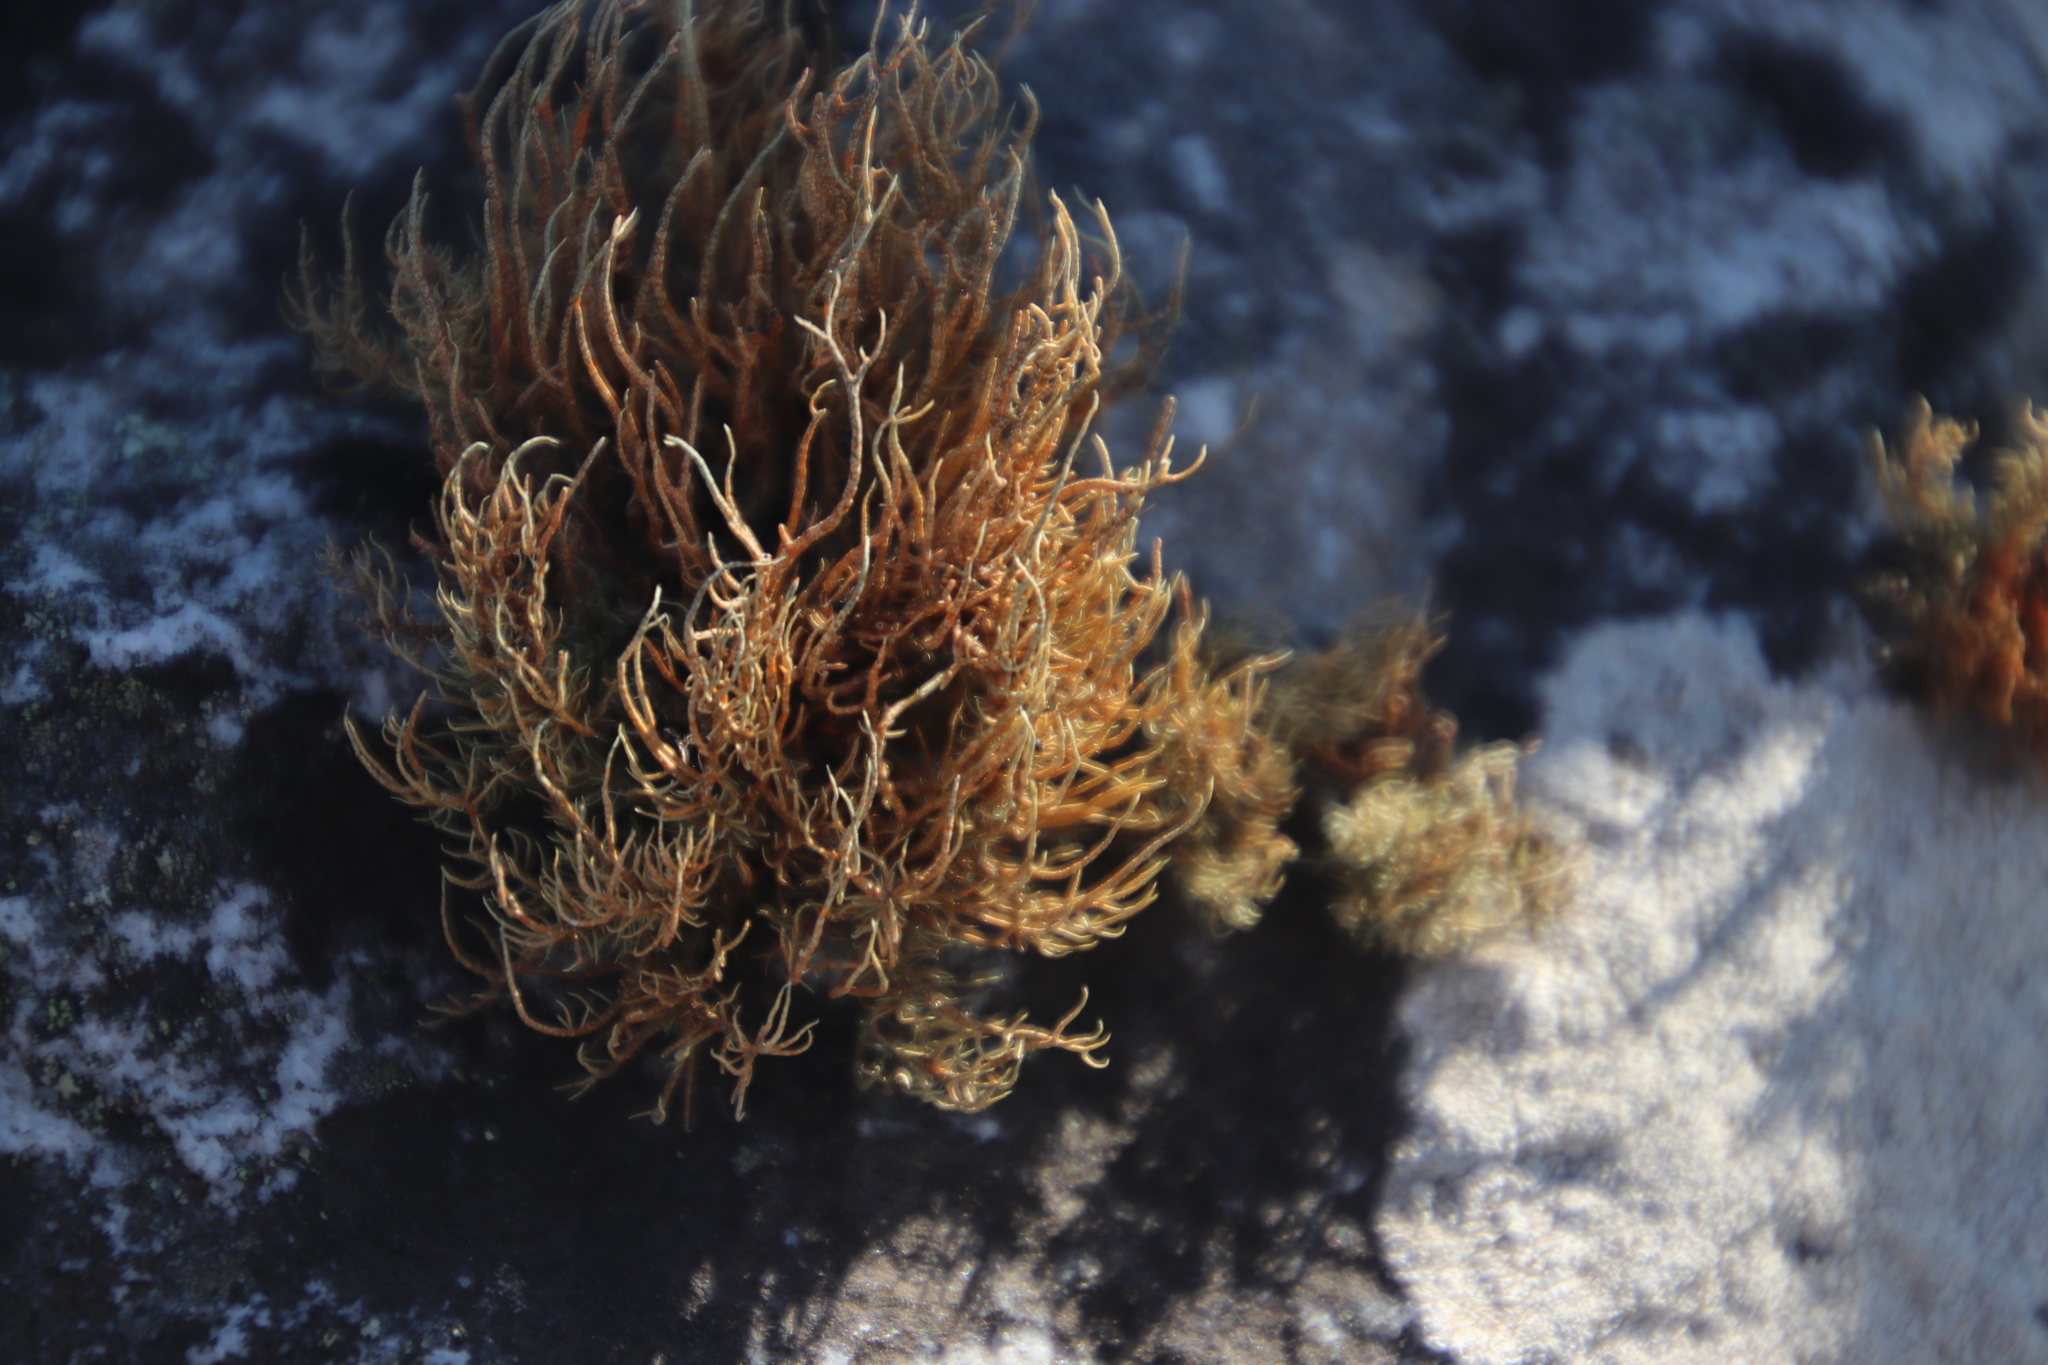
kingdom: Fungi
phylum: Ascomycota
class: Lecanoromycetes
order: Lecanorales
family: Parmeliaceae
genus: Usnea
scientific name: Usnea maculata
